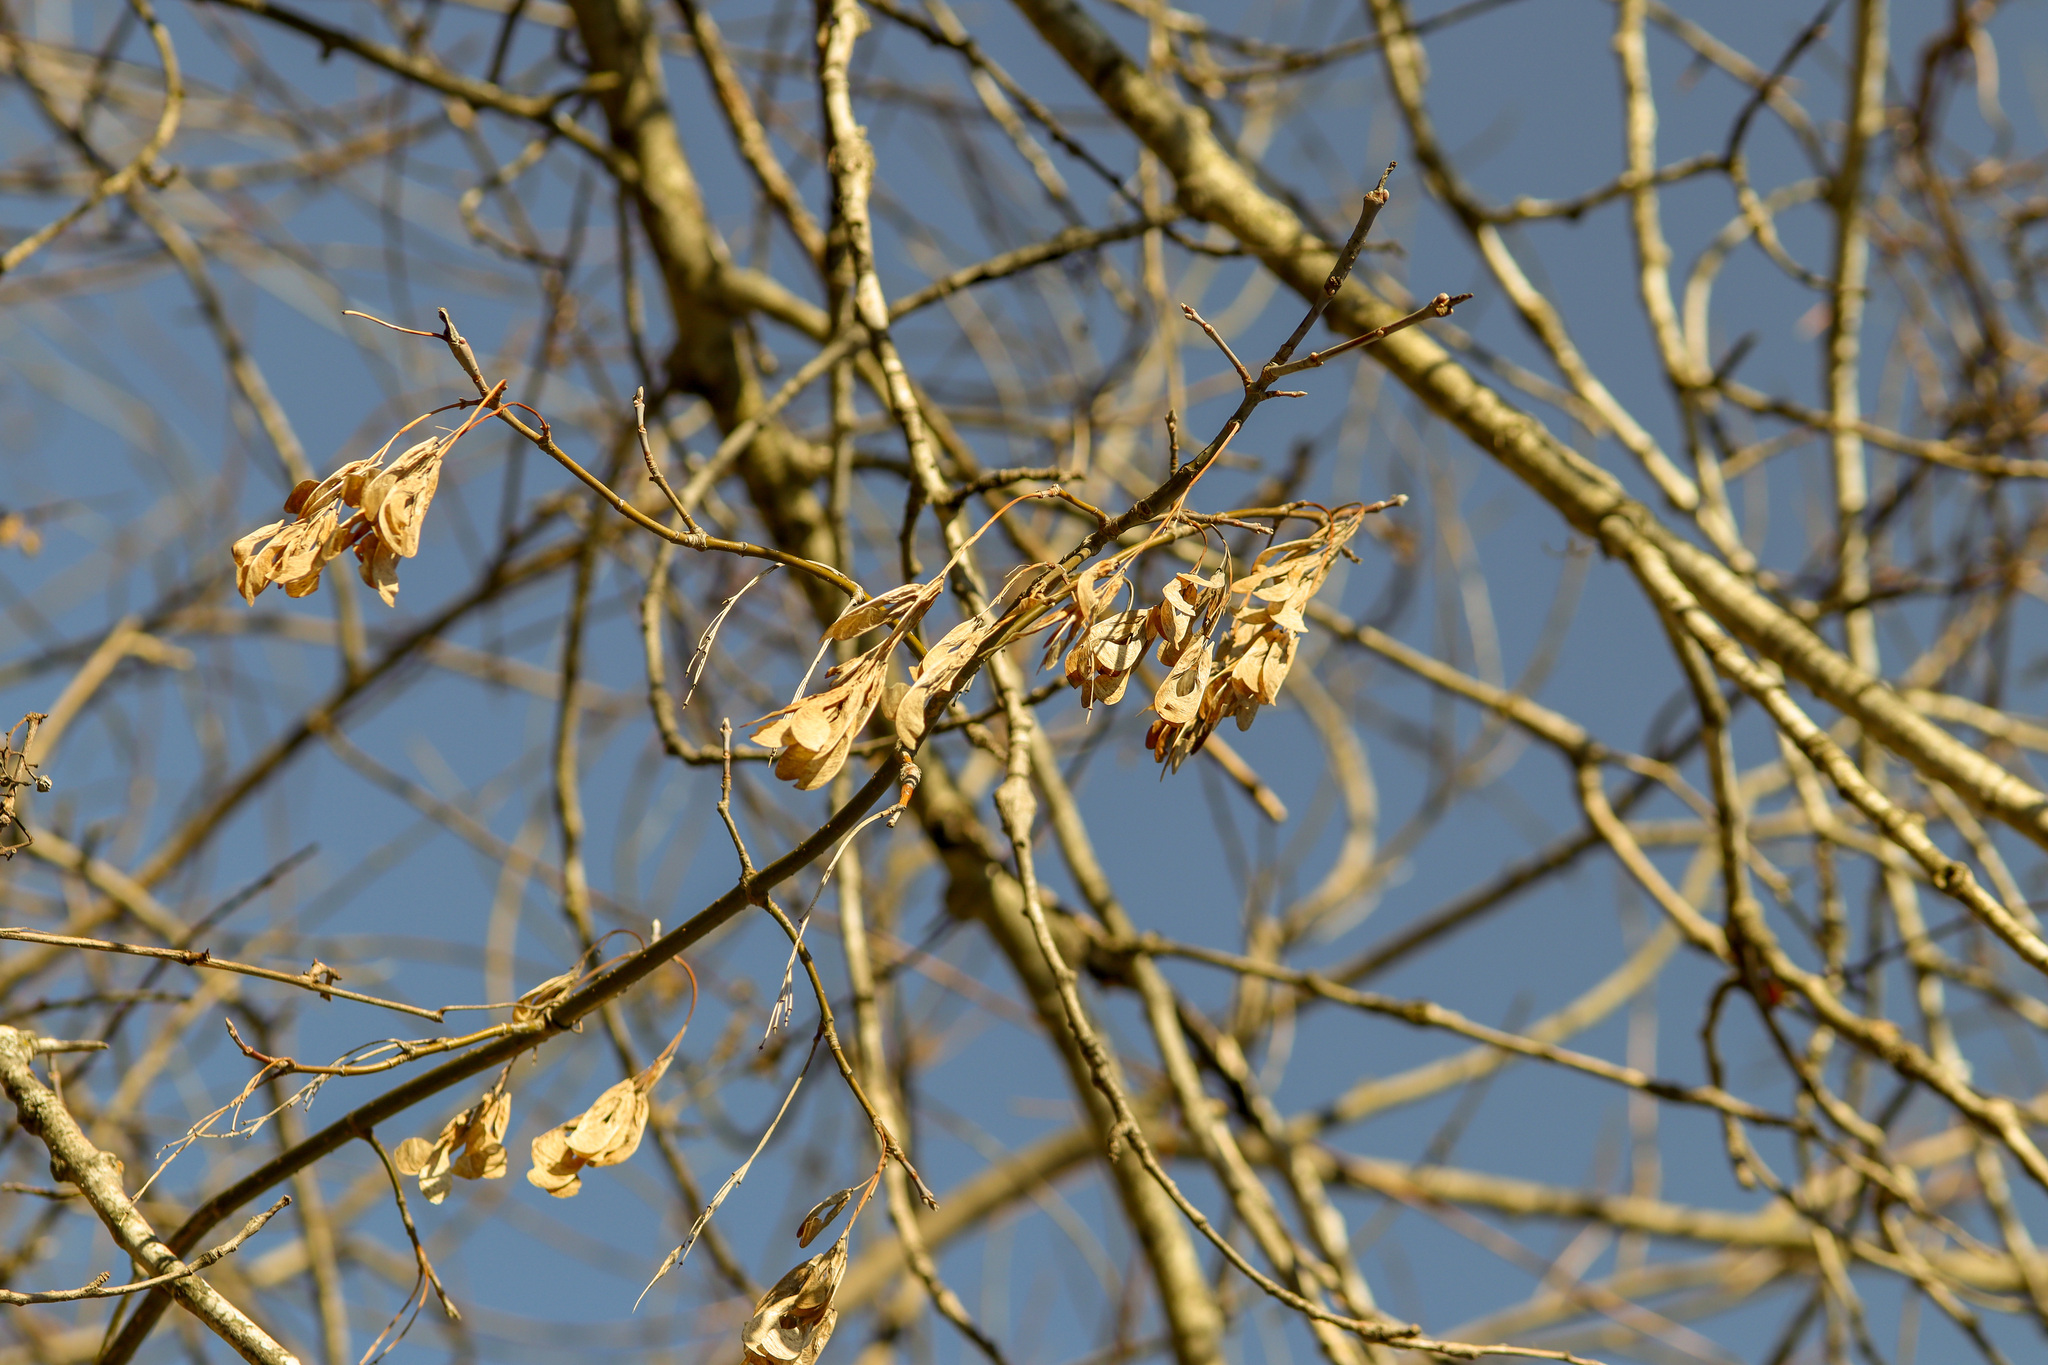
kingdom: Plantae
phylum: Tracheophyta
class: Magnoliopsida
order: Sapindales
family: Sapindaceae
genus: Acer
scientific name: Acer negundo
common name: Ashleaf maple
